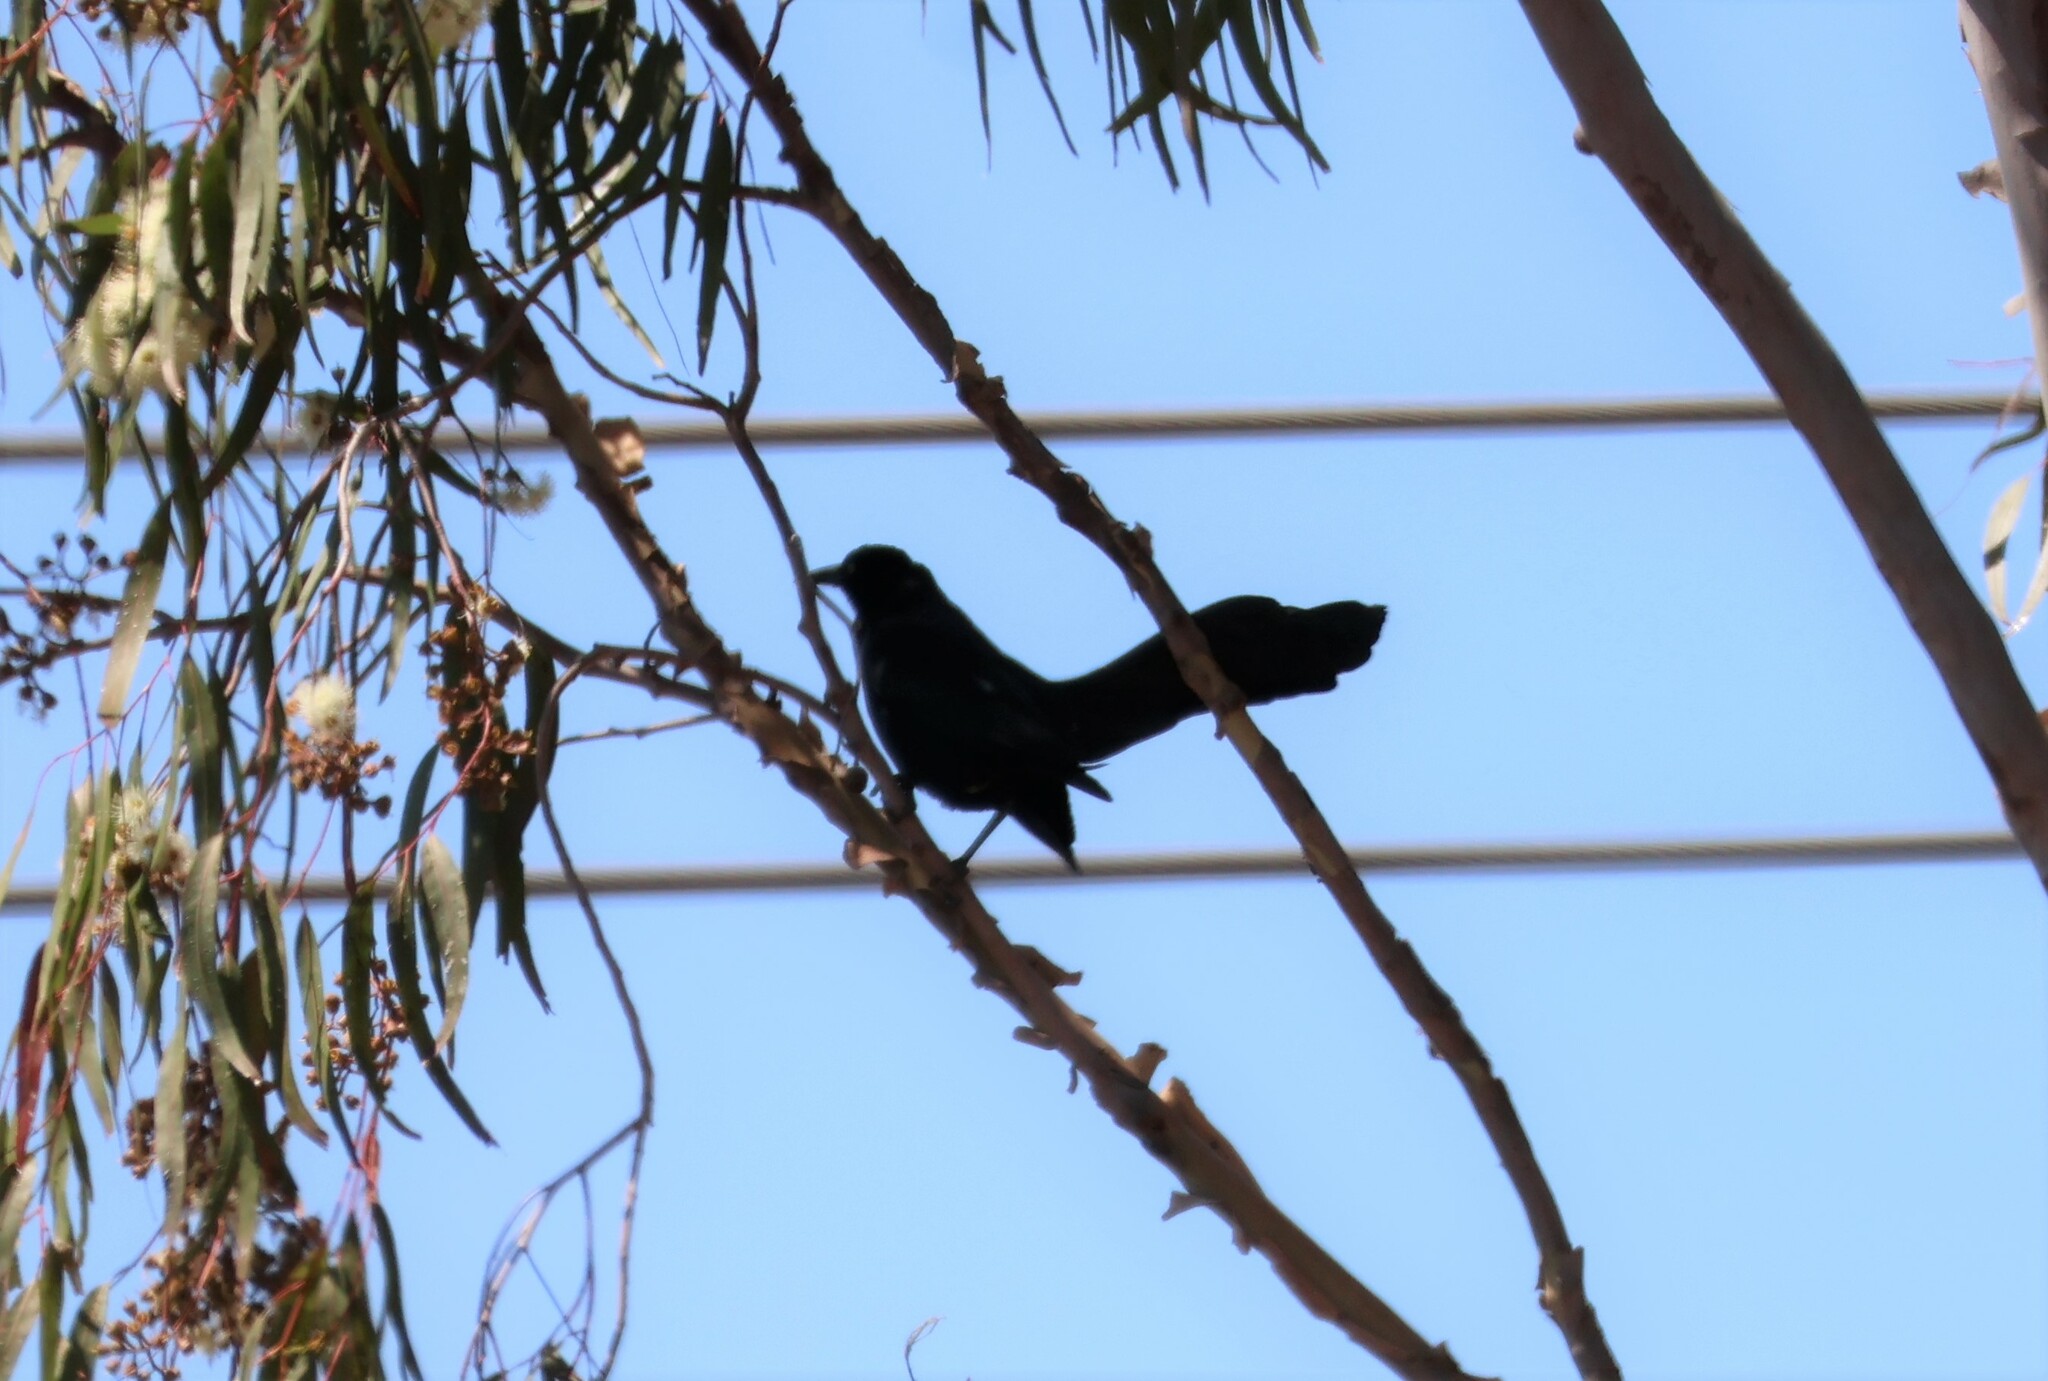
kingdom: Animalia
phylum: Chordata
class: Aves
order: Passeriformes
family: Icteridae
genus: Quiscalus
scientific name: Quiscalus mexicanus
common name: Great-tailed grackle
